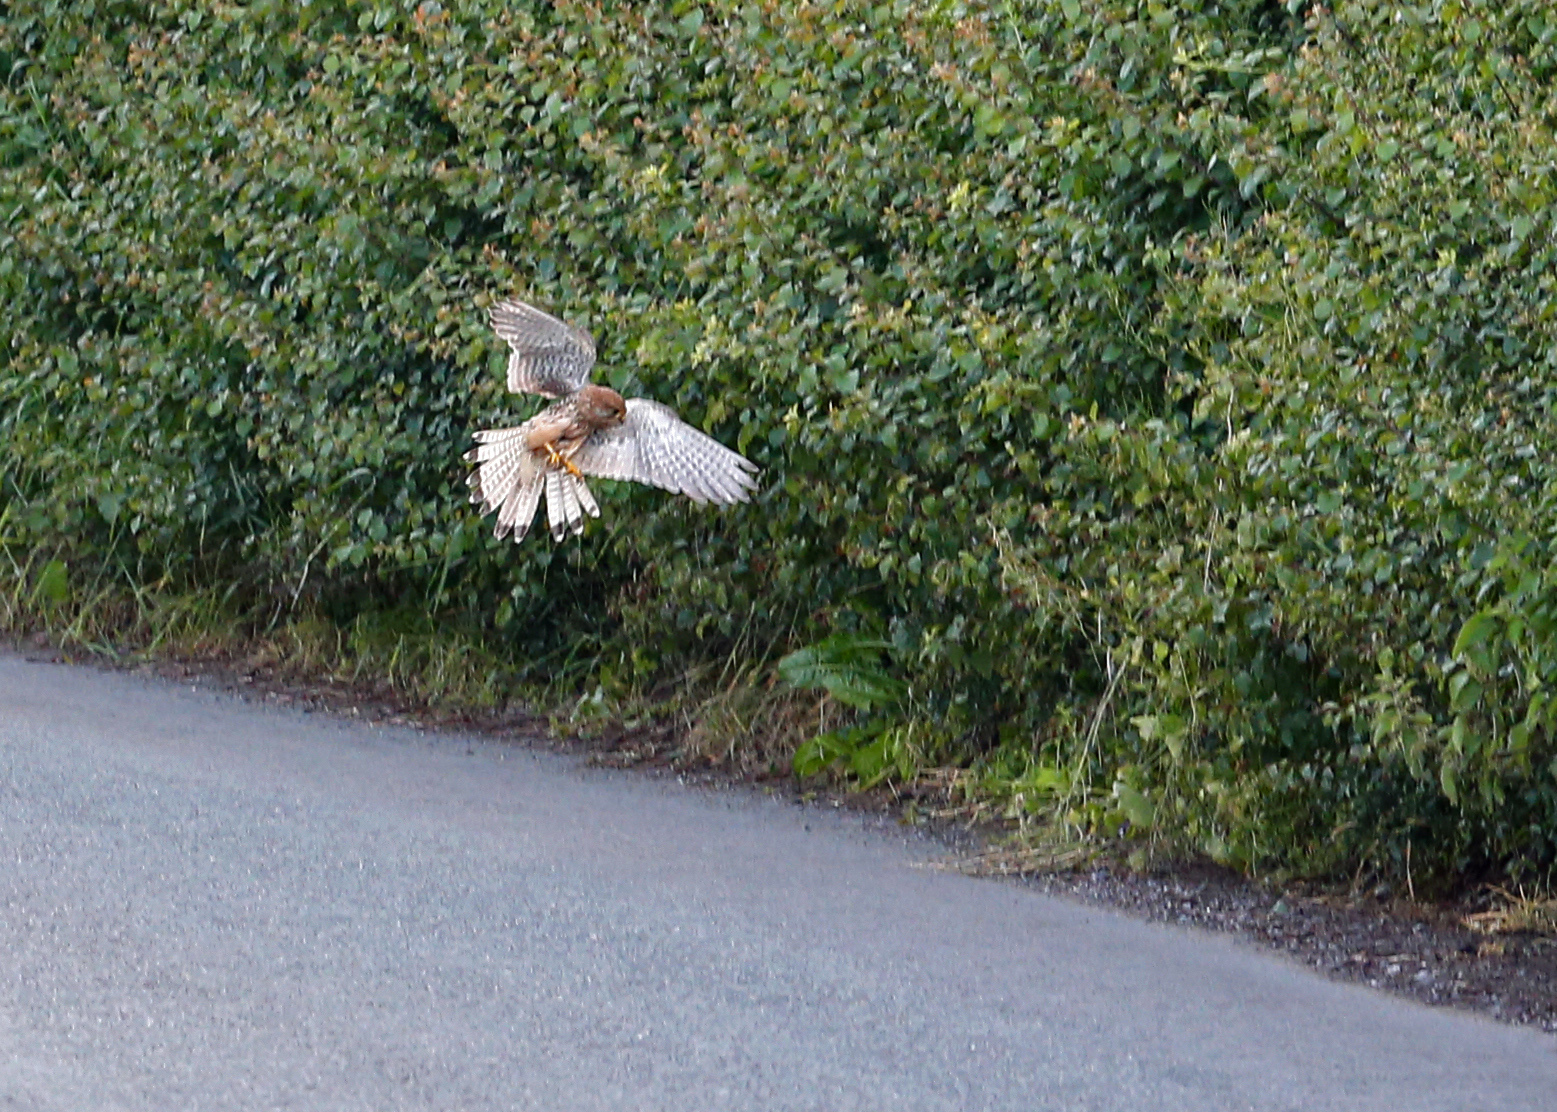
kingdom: Animalia
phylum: Chordata
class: Aves
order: Falconiformes
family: Falconidae
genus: Falco
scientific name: Falco tinnunculus
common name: Common kestrel
